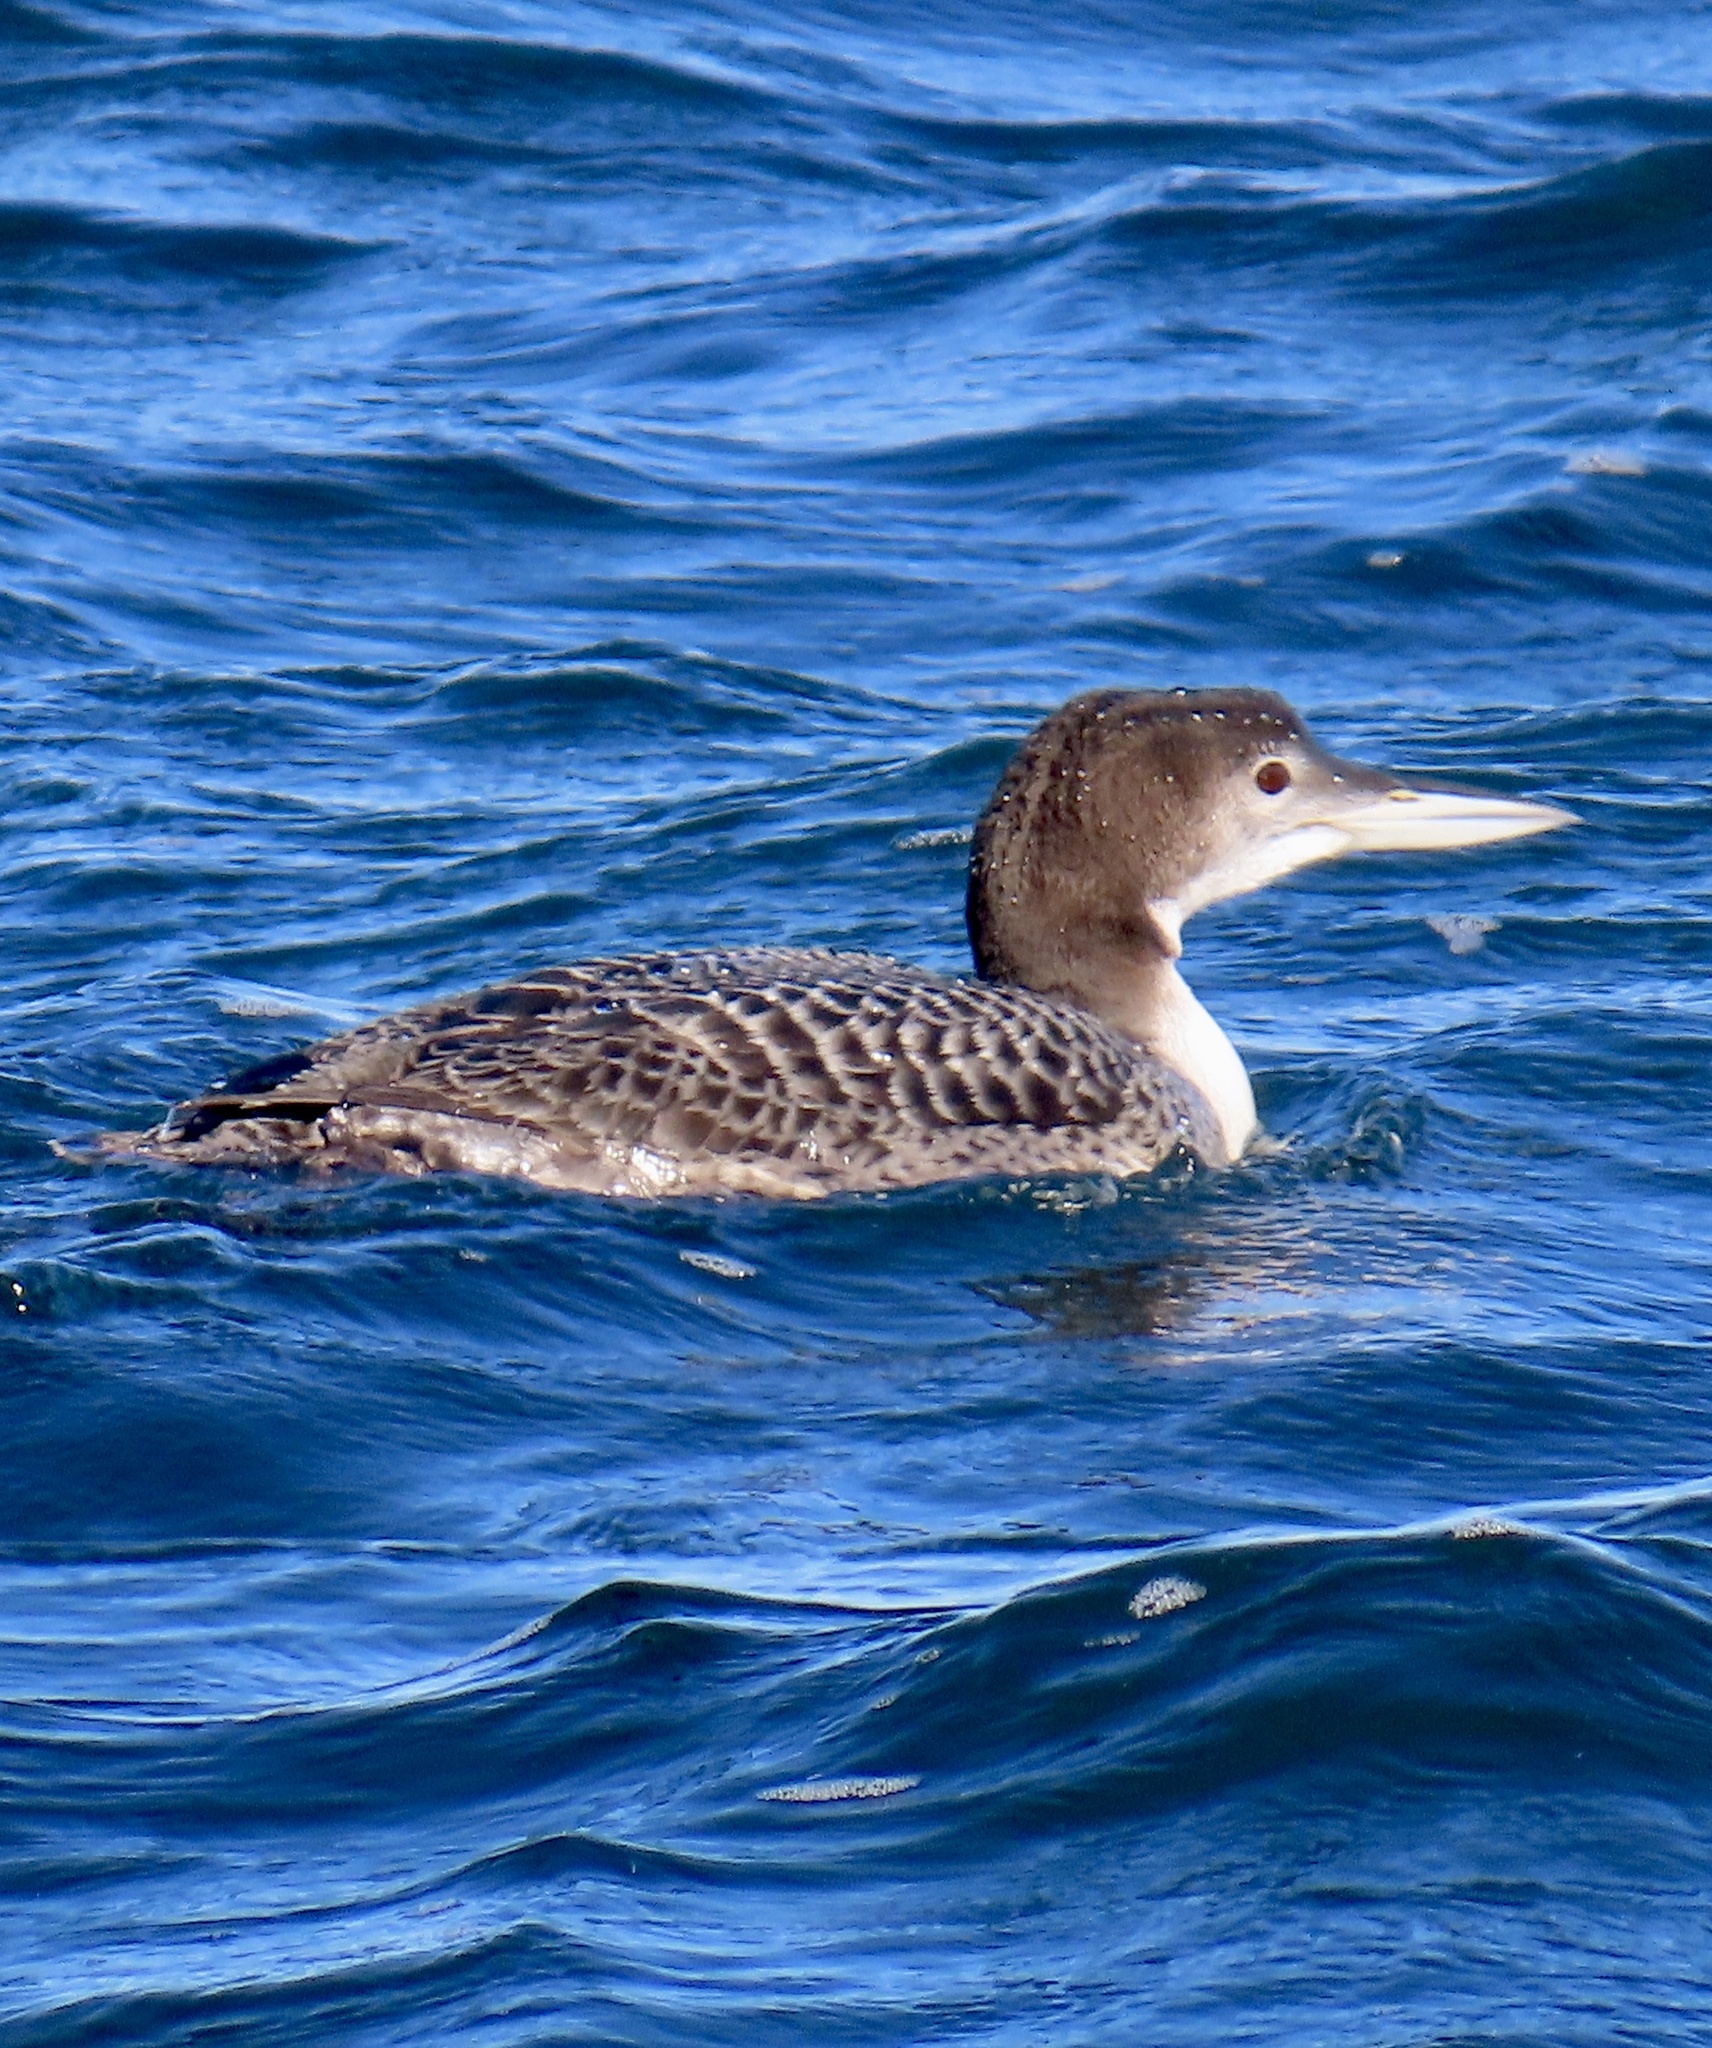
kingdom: Animalia
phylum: Chordata
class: Aves
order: Gaviiformes
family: Gaviidae
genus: Gavia
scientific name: Gavia immer
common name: Common loon
